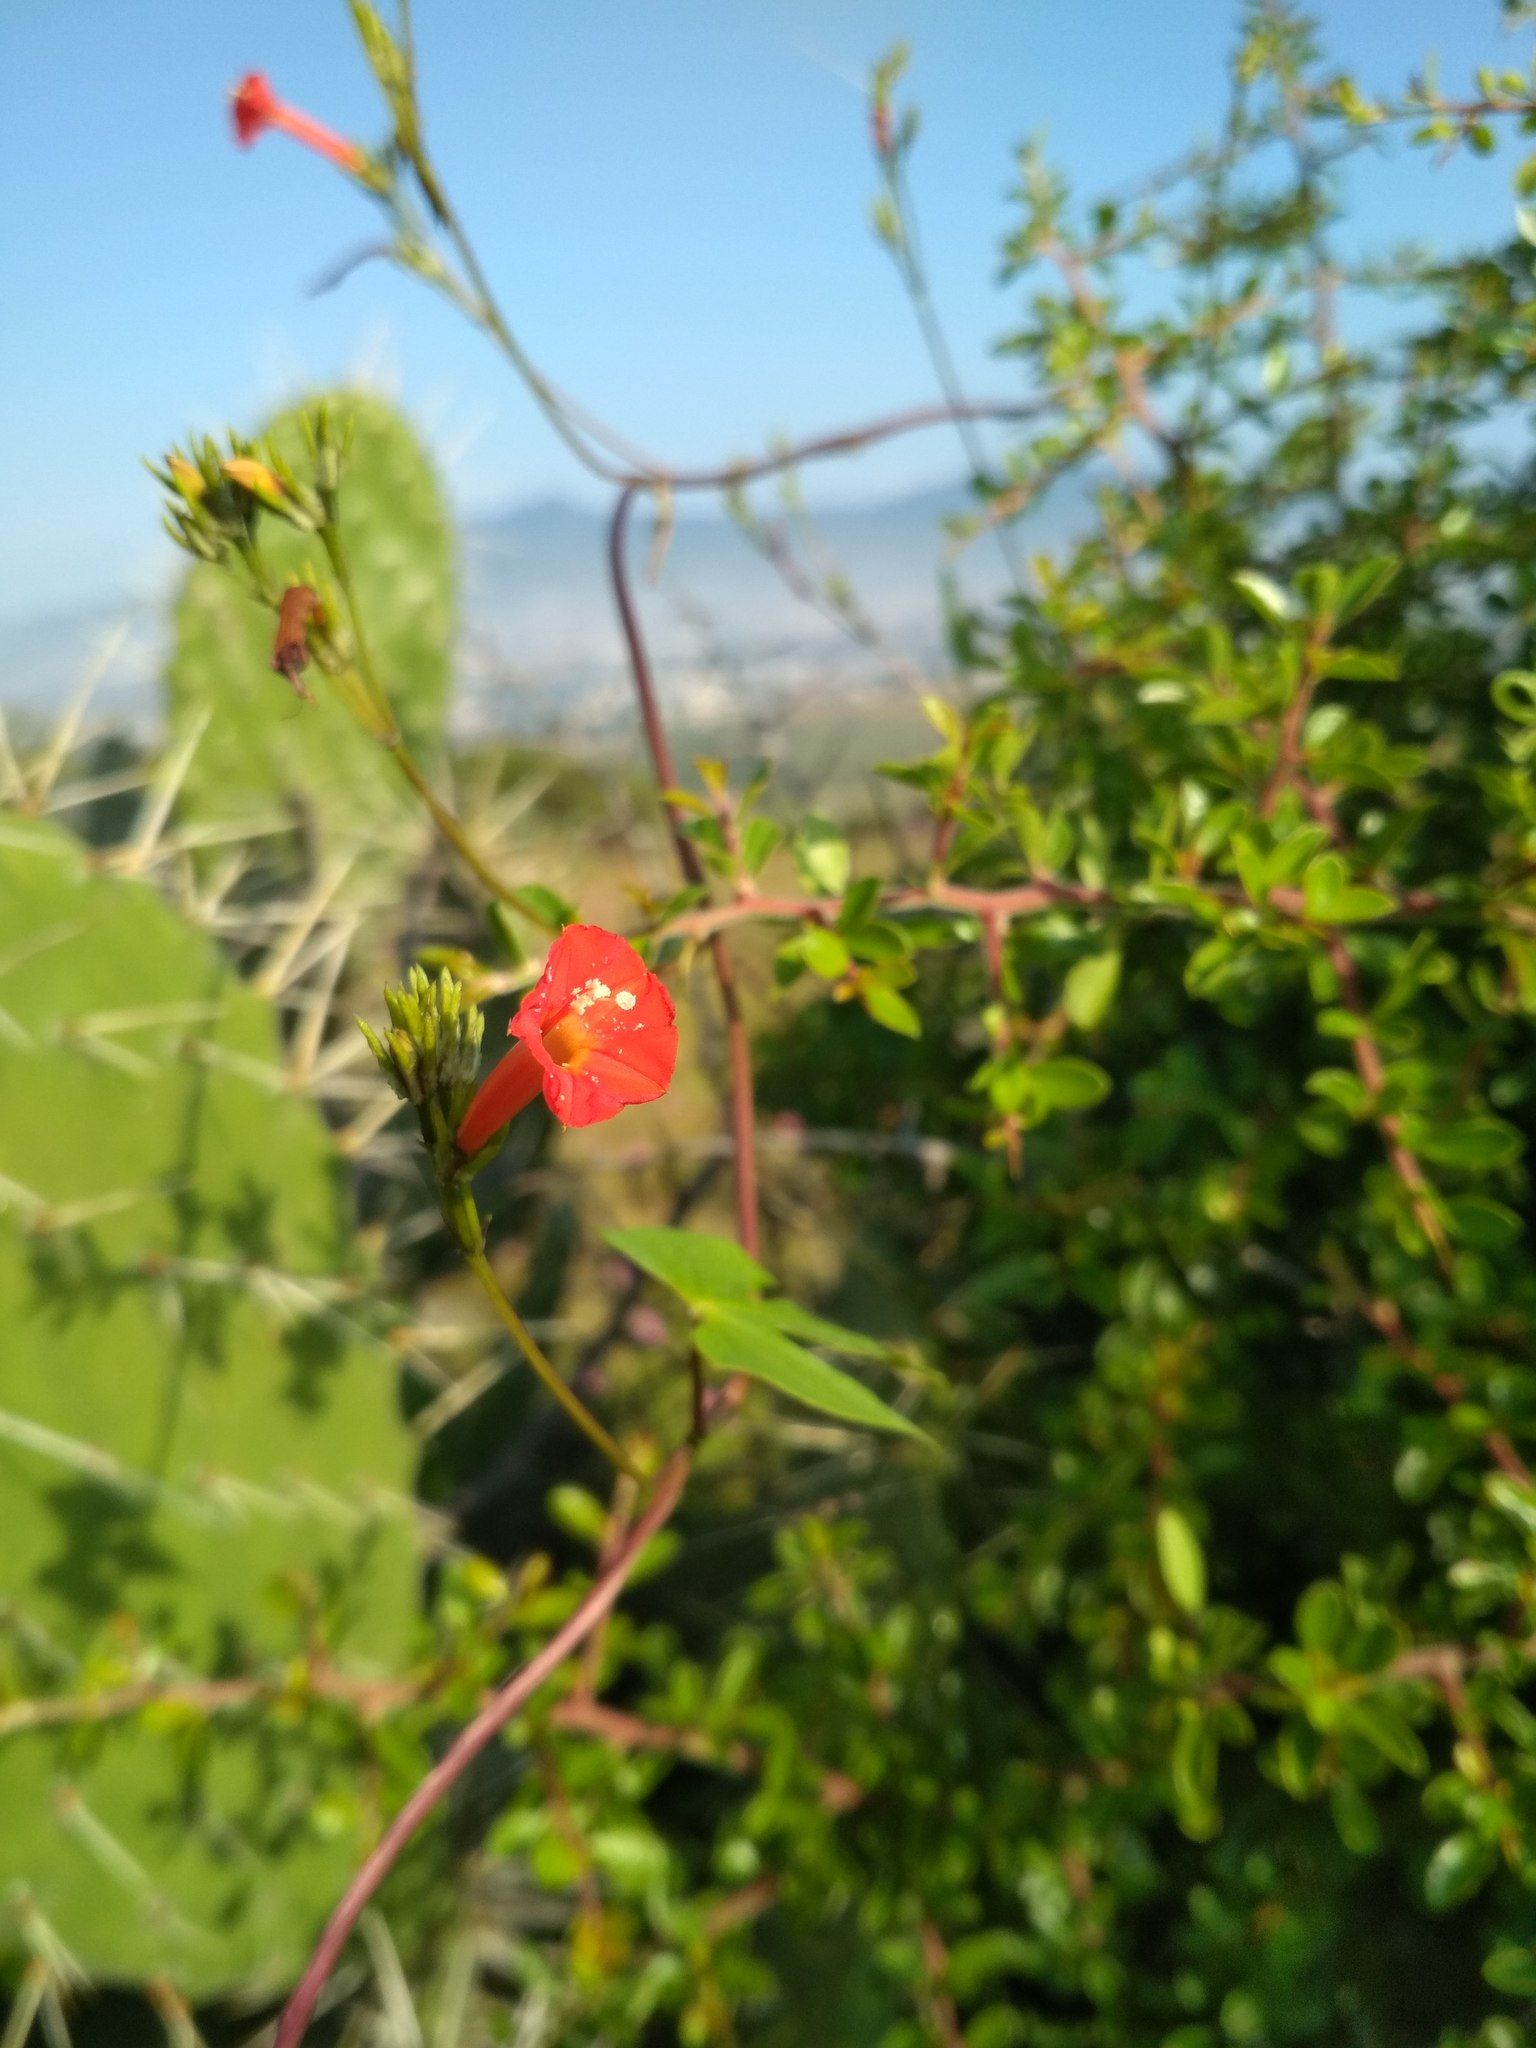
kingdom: Plantae
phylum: Tracheophyta
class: Magnoliopsida
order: Solanales
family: Convolvulaceae
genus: Ipomoea
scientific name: Ipomoea hederifolia
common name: Ivy-leaf morning-glory
